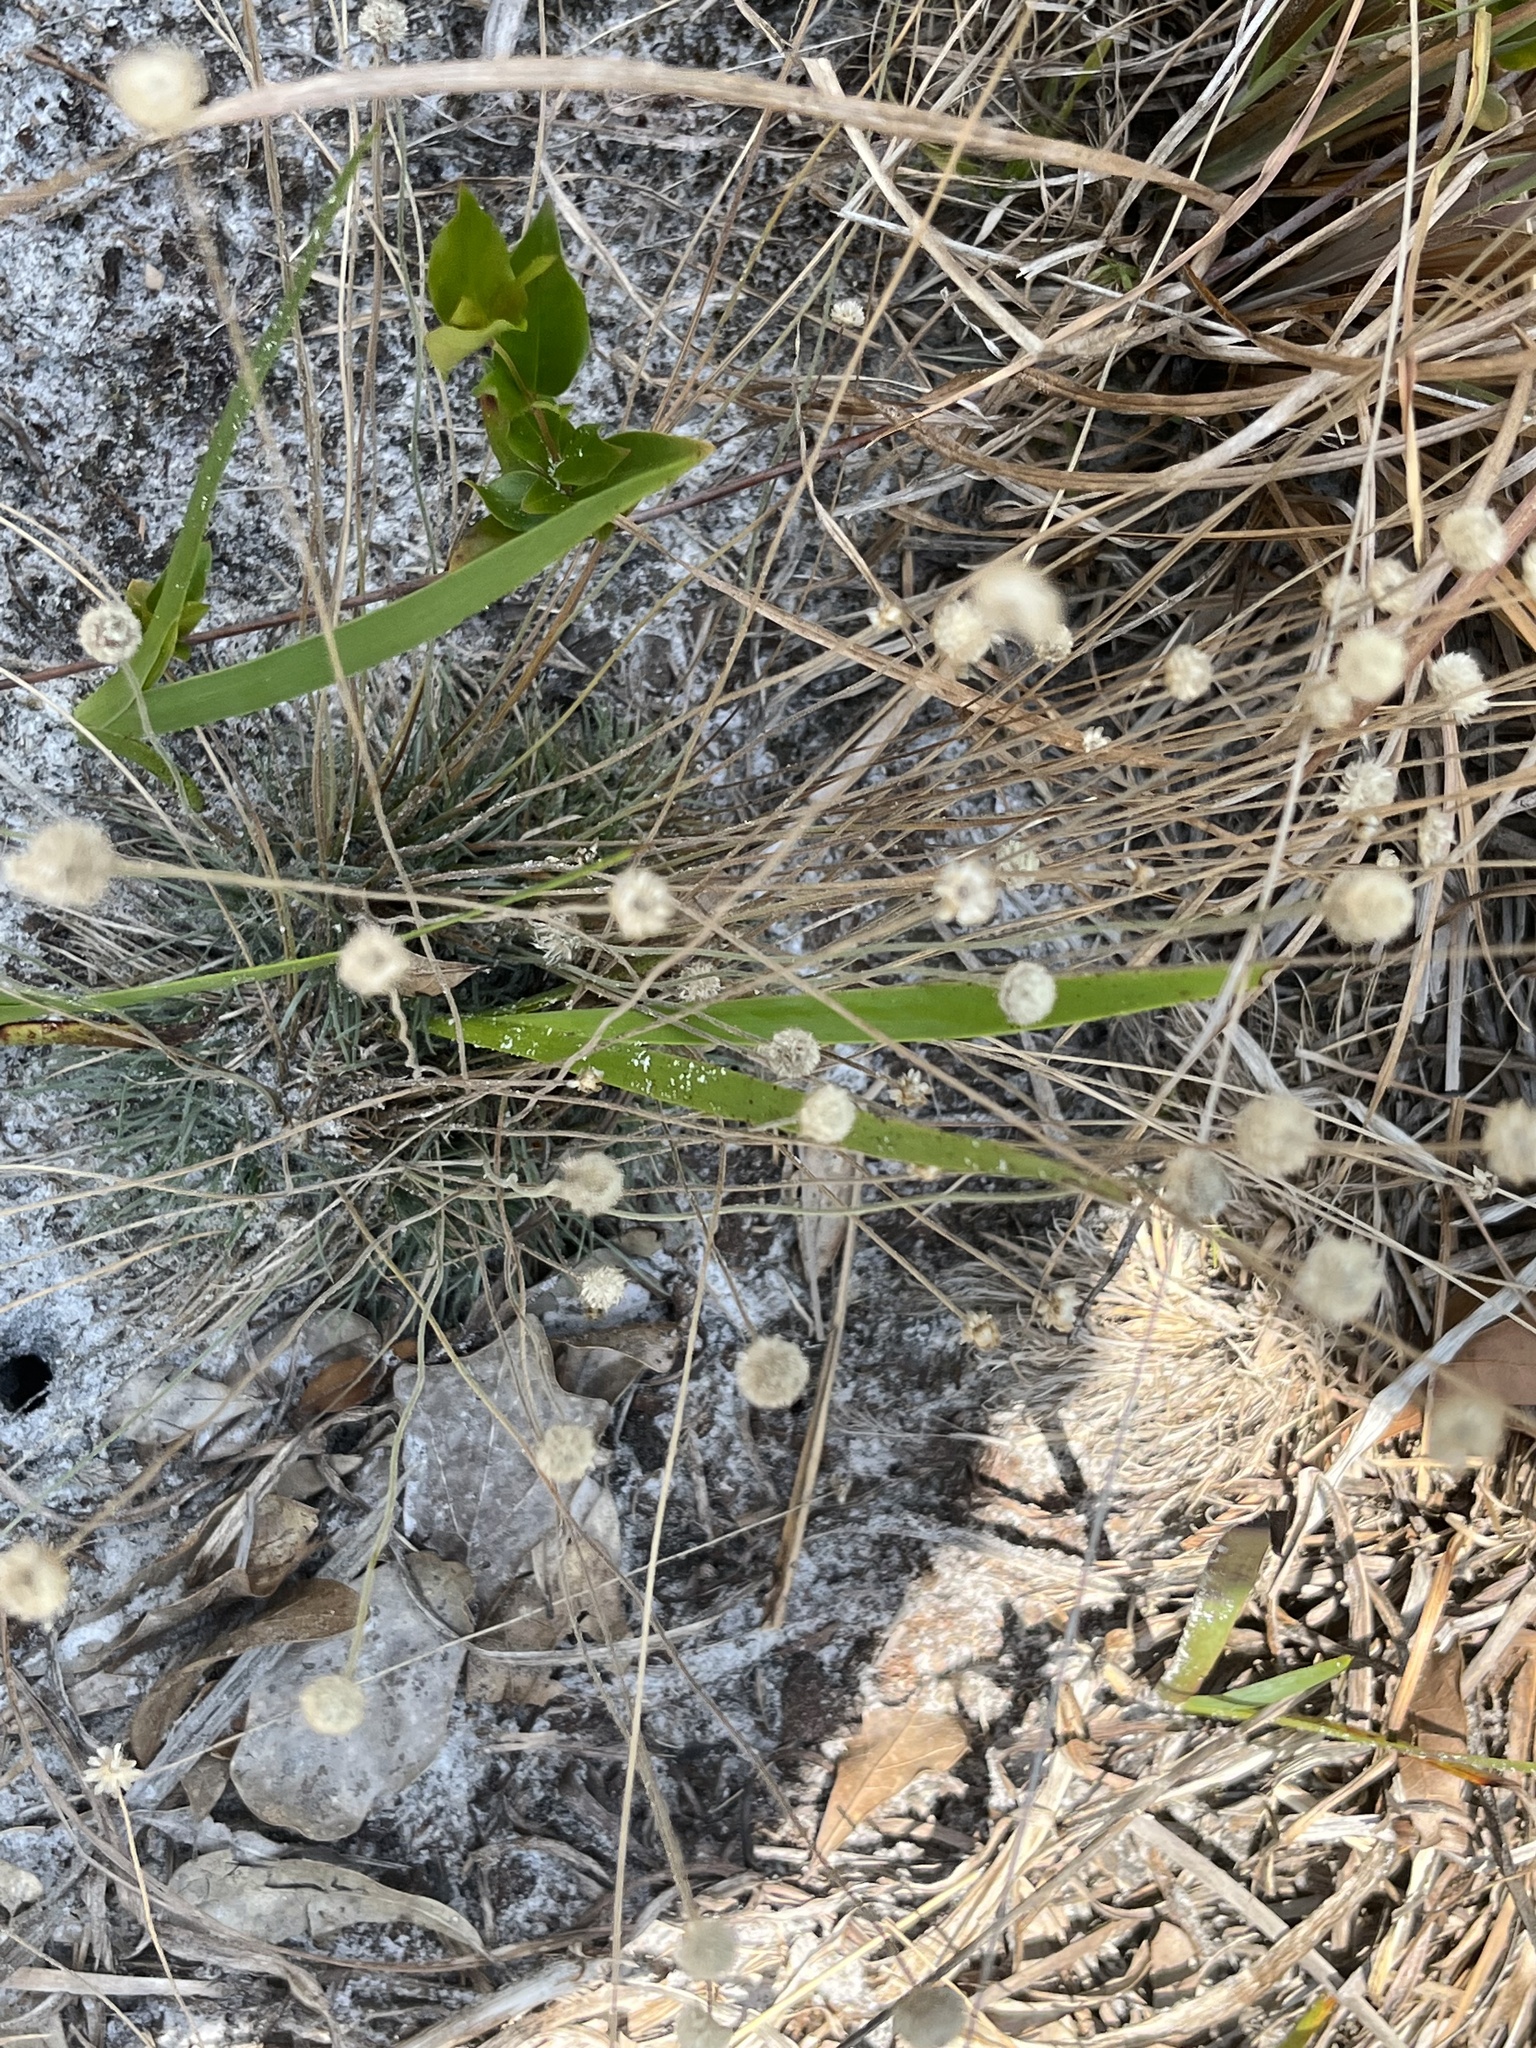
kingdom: Plantae
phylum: Tracheophyta
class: Liliopsida
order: Poales
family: Eriocaulaceae
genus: Syngonanthus
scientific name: Syngonanthus flavidulus
